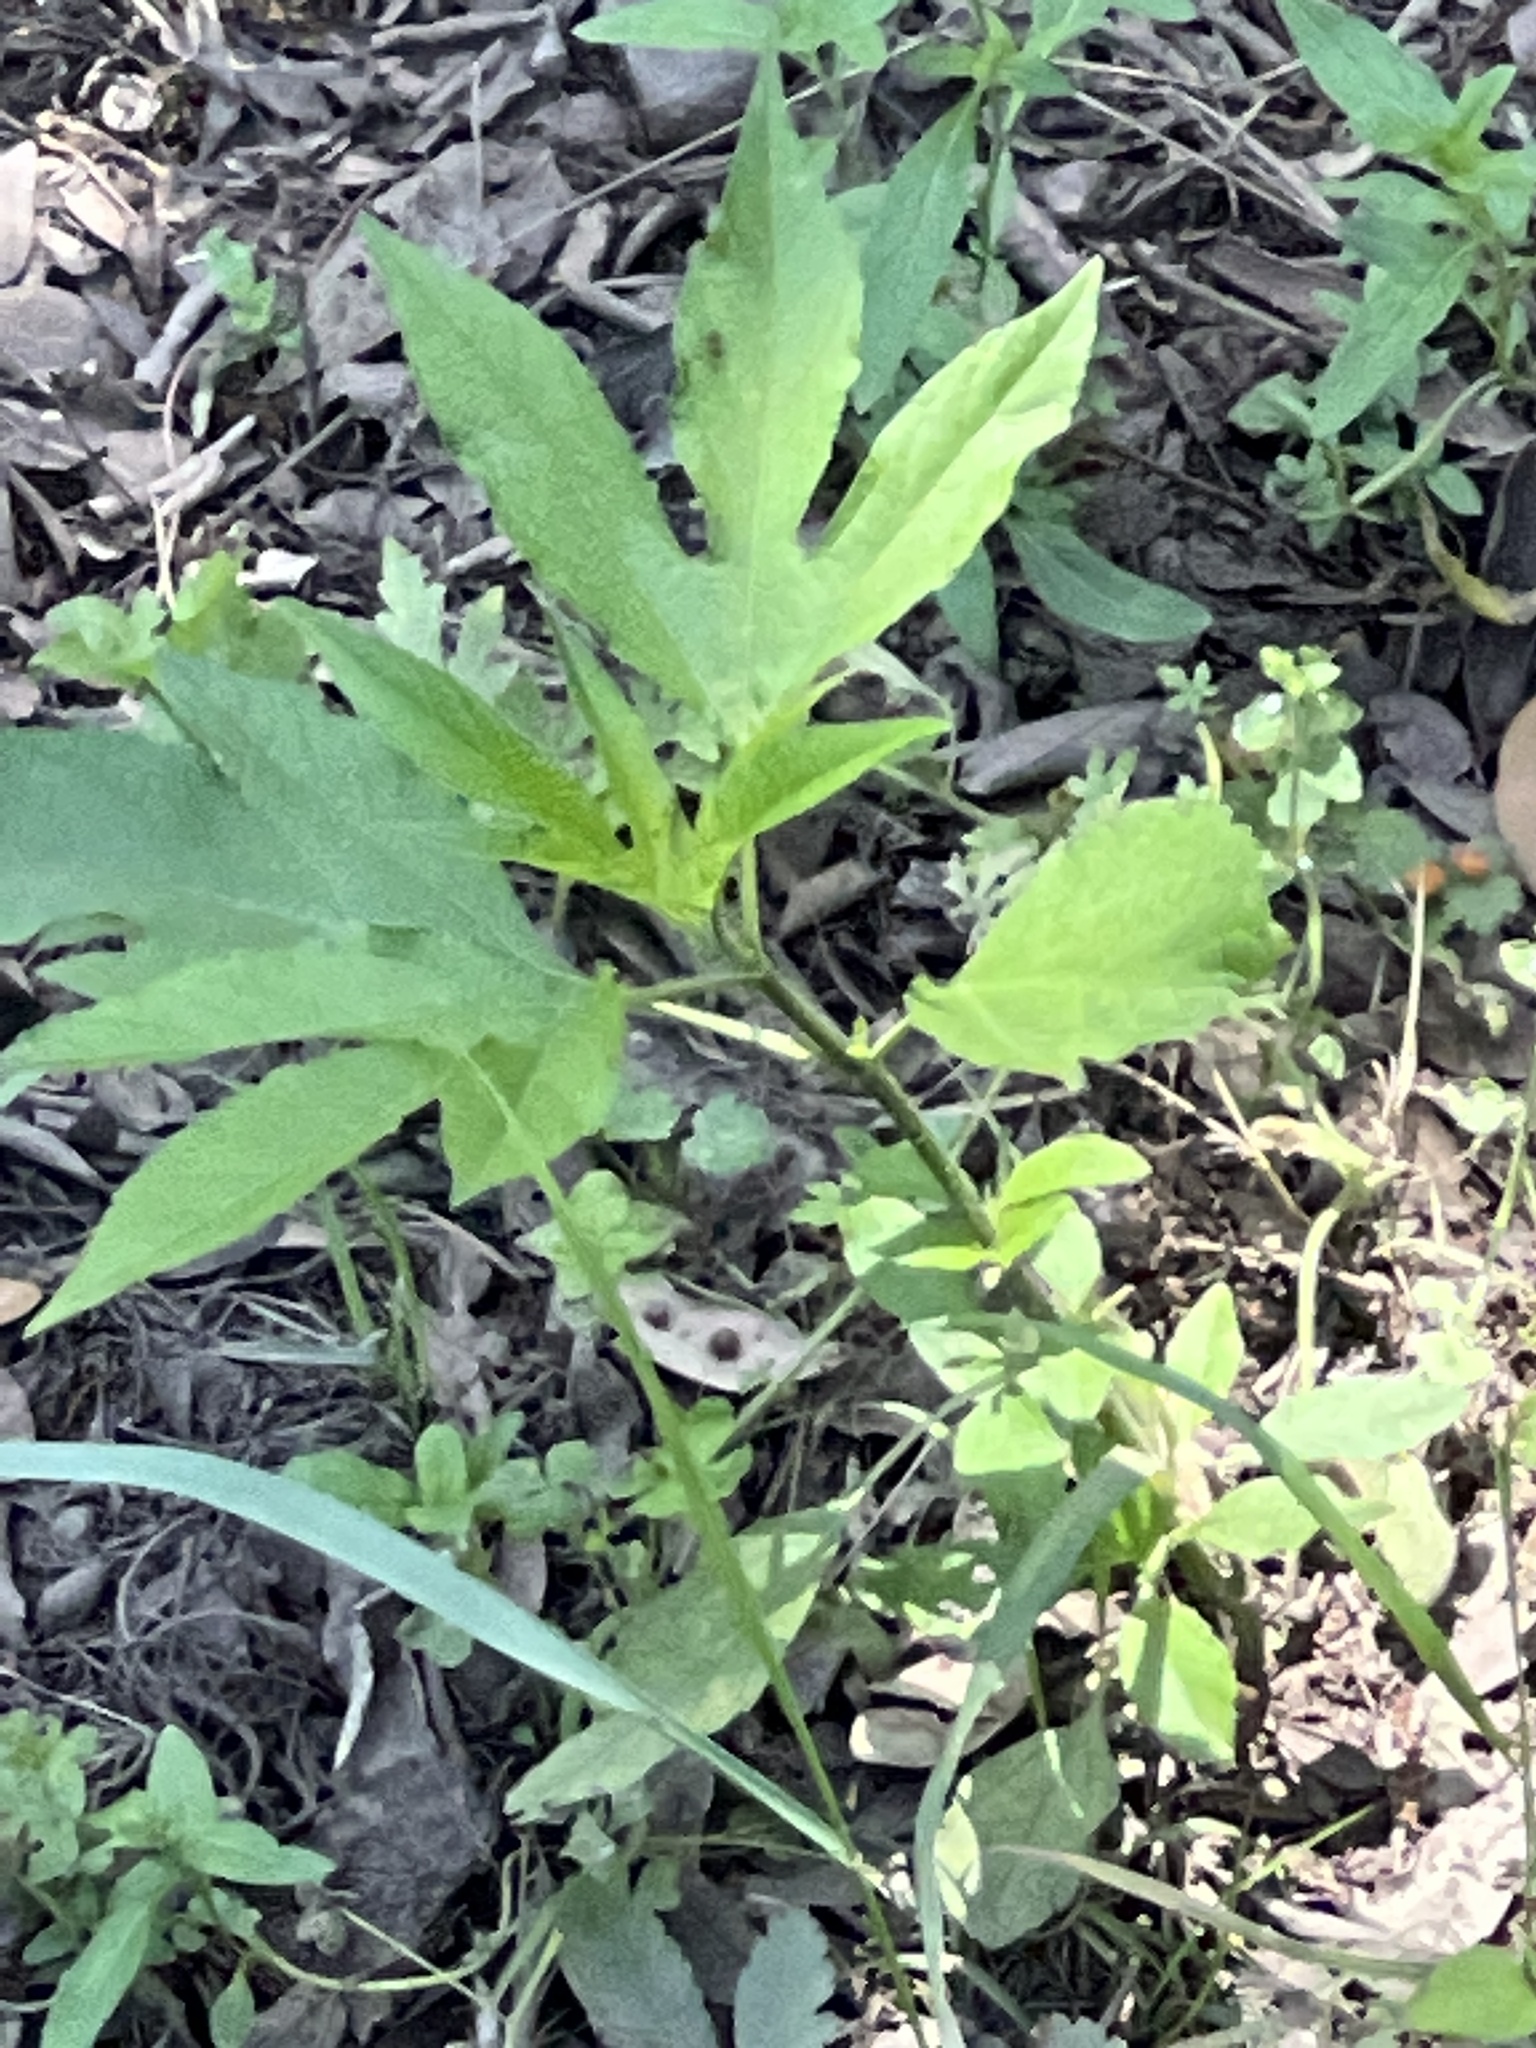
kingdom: Plantae
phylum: Tracheophyta
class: Magnoliopsida
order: Asterales
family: Asteraceae
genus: Ambrosia
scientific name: Ambrosia trifida
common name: Giant ragweed
